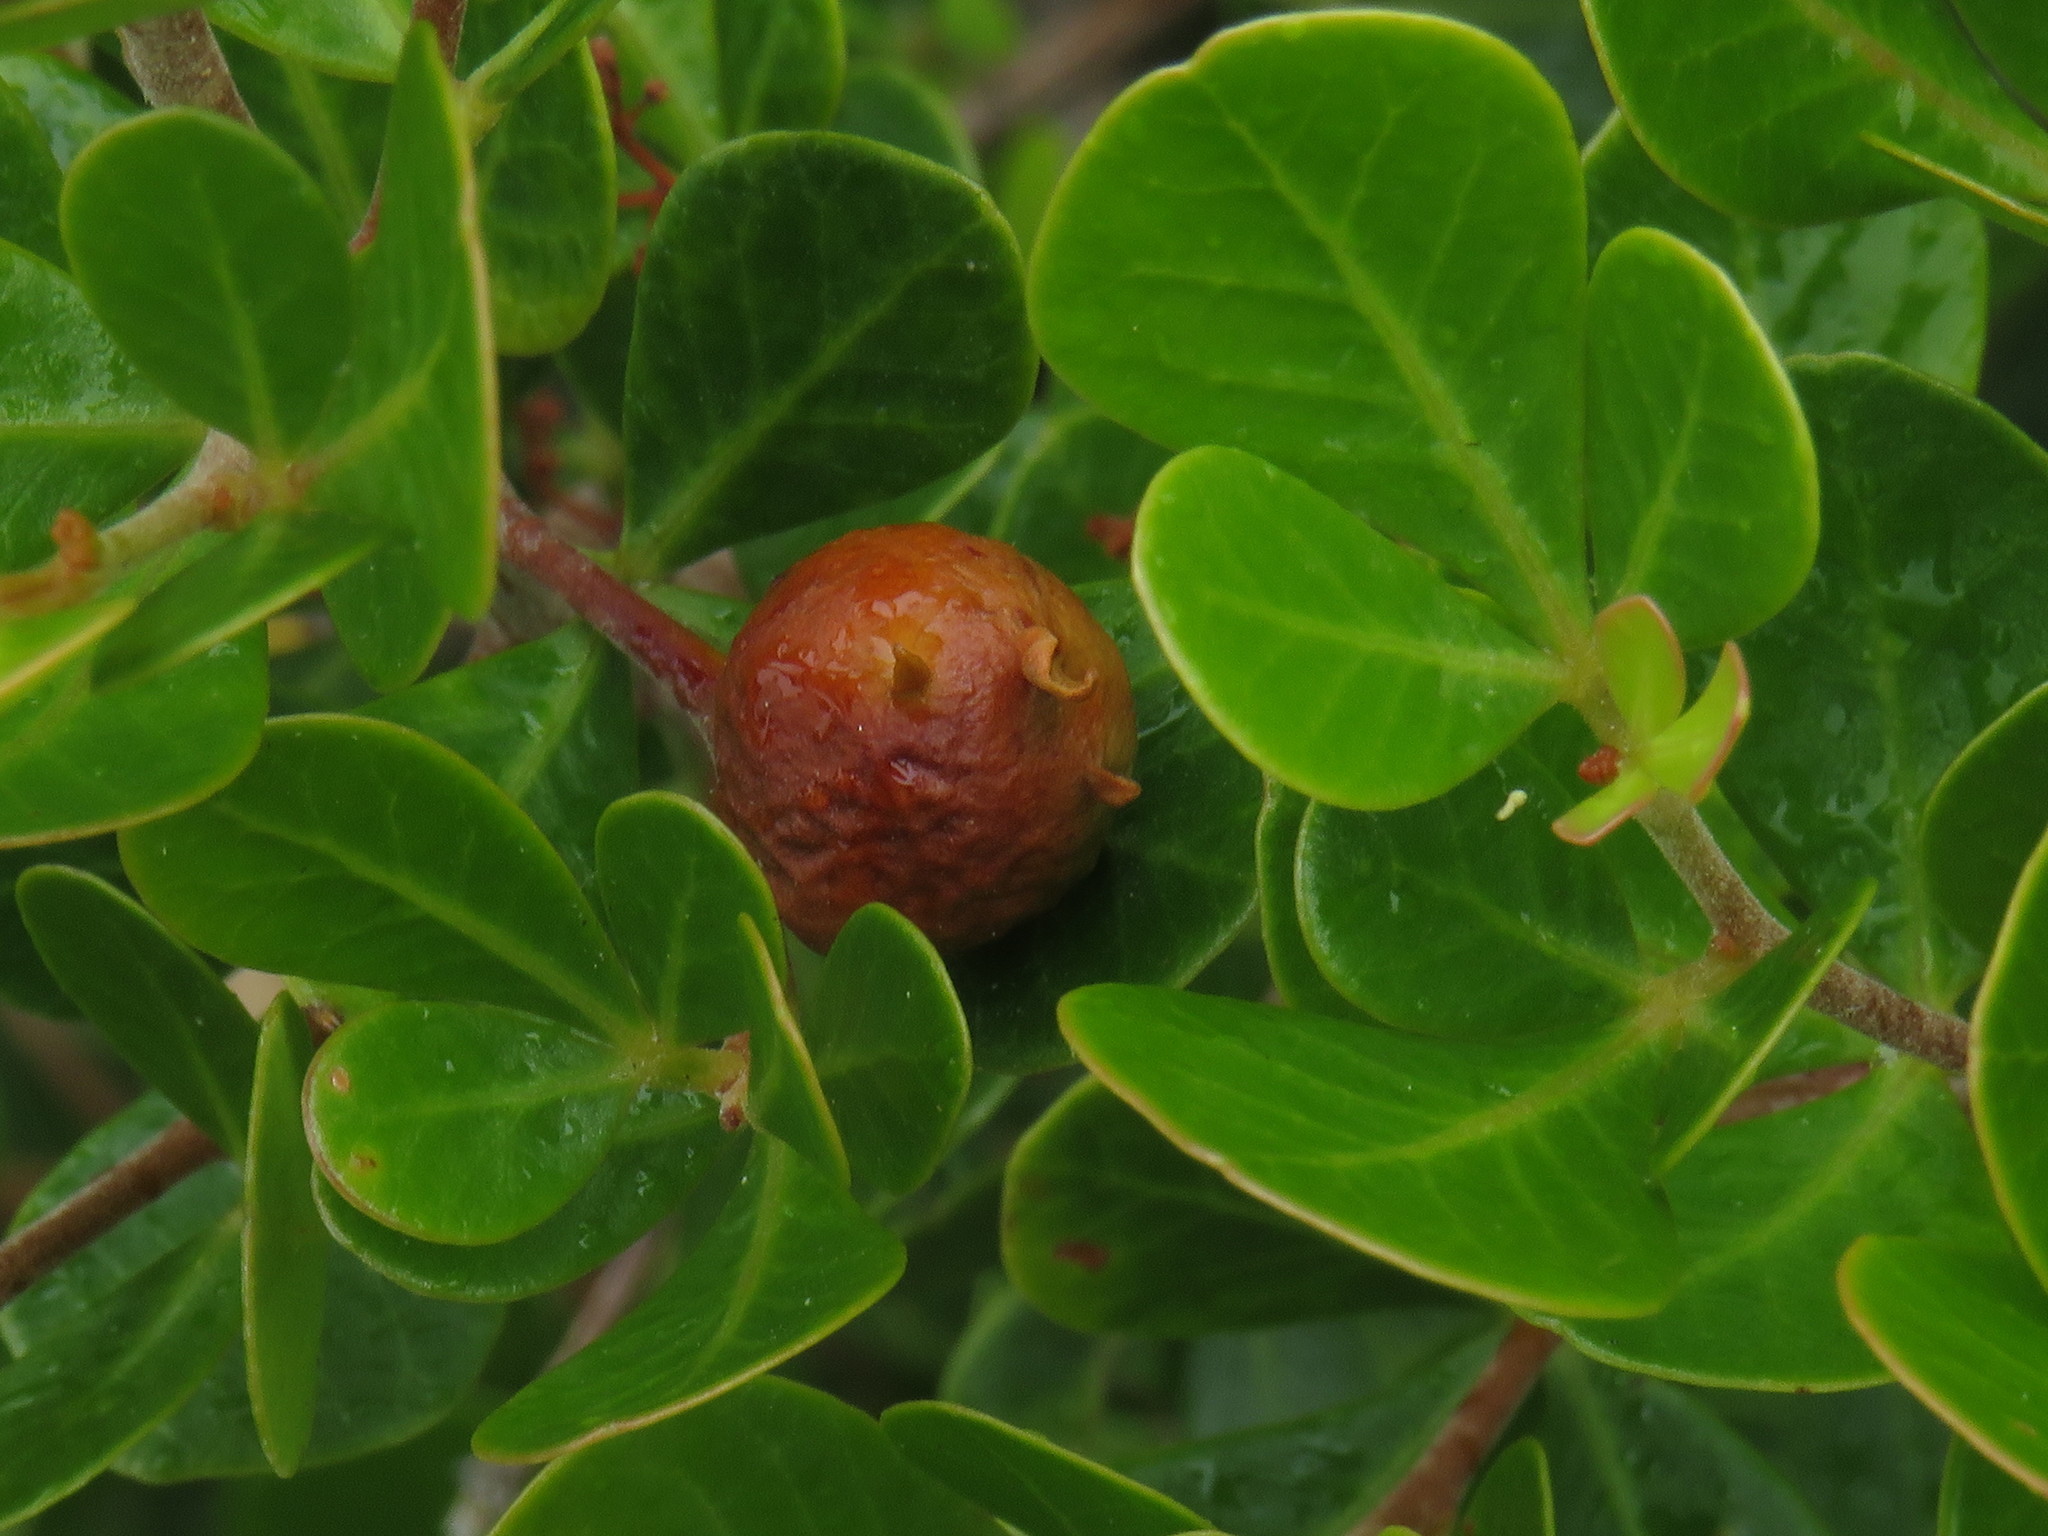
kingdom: Plantae
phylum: Tracheophyta
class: Magnoliopsida
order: Sapindales
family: Anacardiaceae
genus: Searsia
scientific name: Searsia lucida
